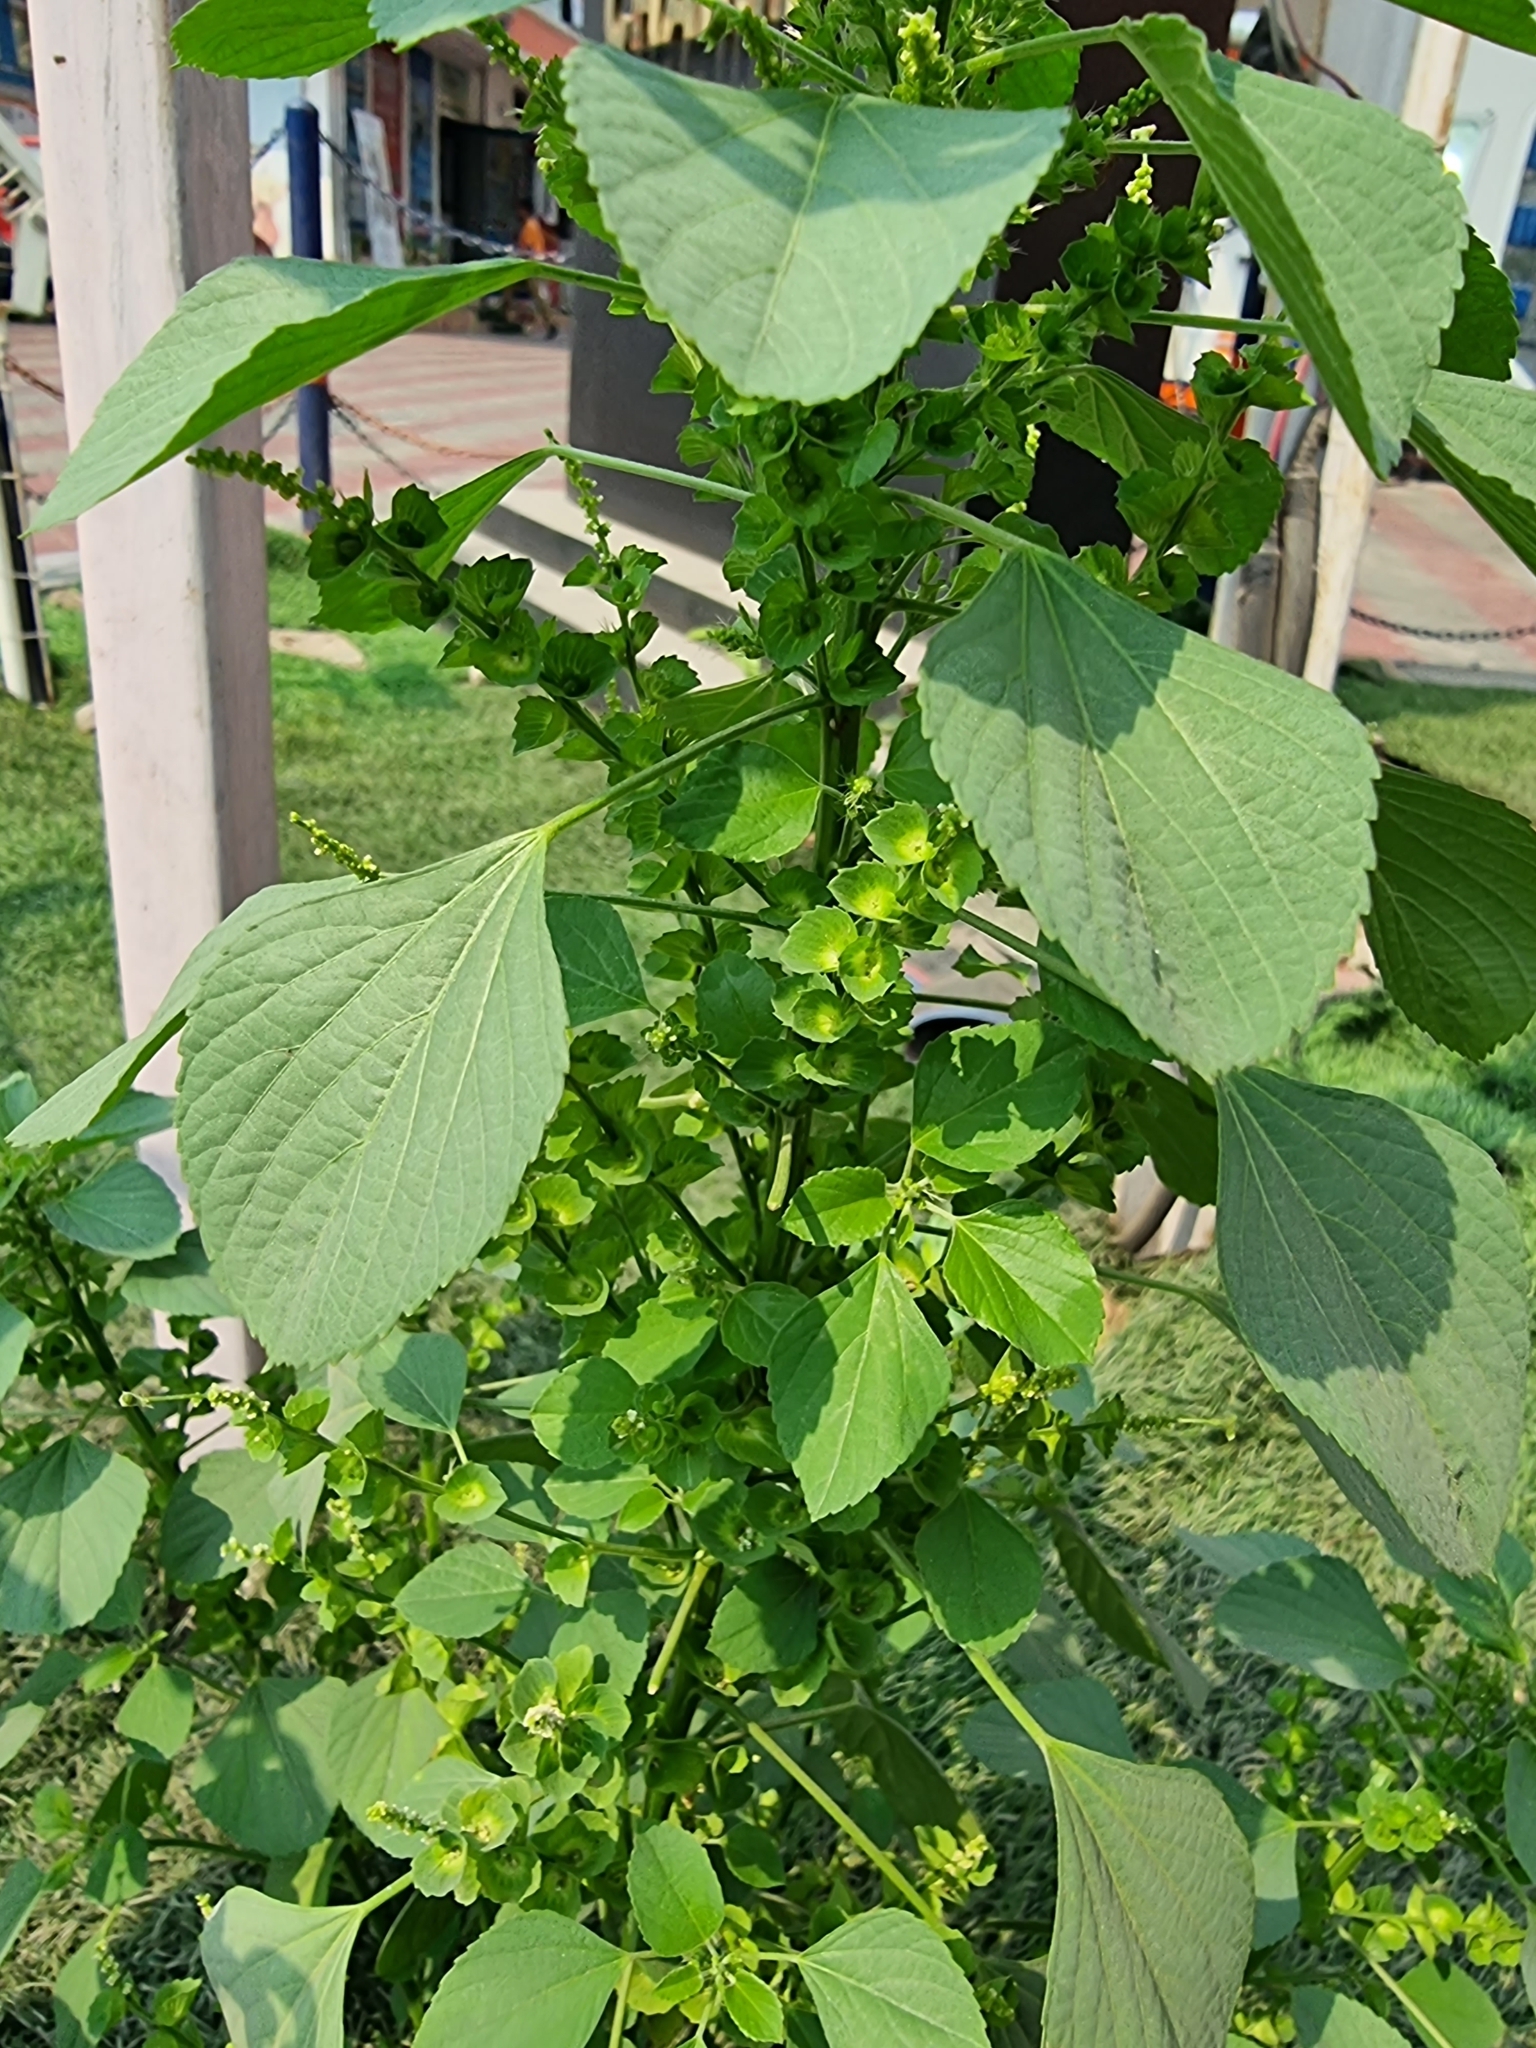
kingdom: Plantae
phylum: Tracheophyta
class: Magnoliopsida
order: Malpighiales
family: Euphorbiaceae
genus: Acalypha
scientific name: Acalypha indica
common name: Indian acalypha
